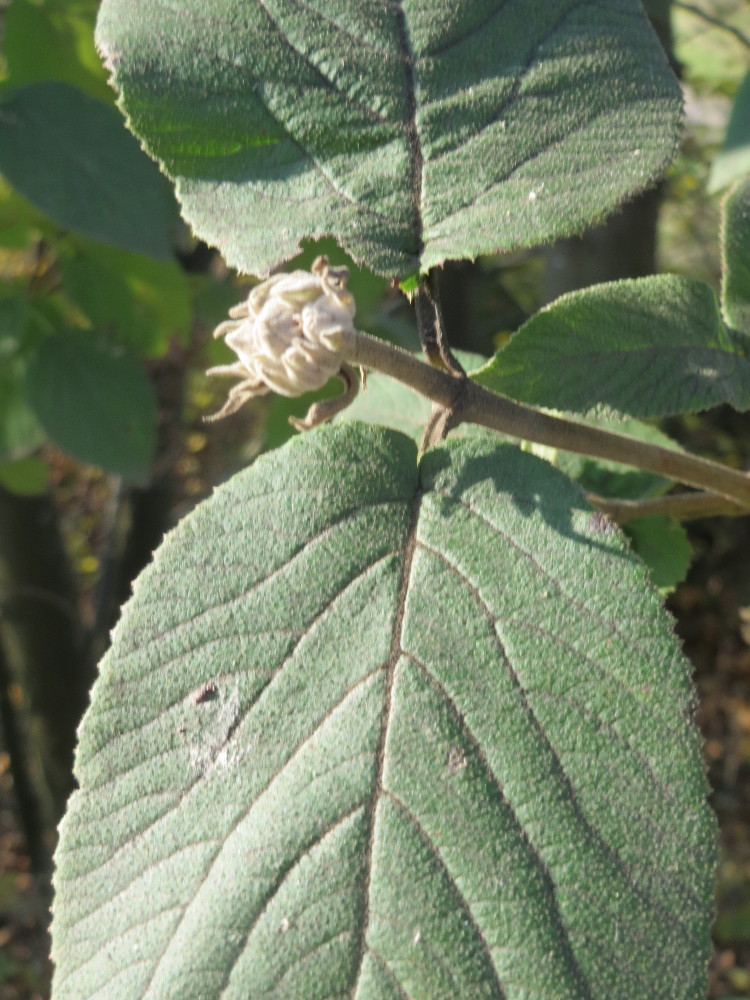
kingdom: Plantae
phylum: Tracheophyta
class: Magnoliopsida
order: Dipsacales
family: Viburnaceae
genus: Viburnum
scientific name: Viburnum lantana
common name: Wayfaring tree
